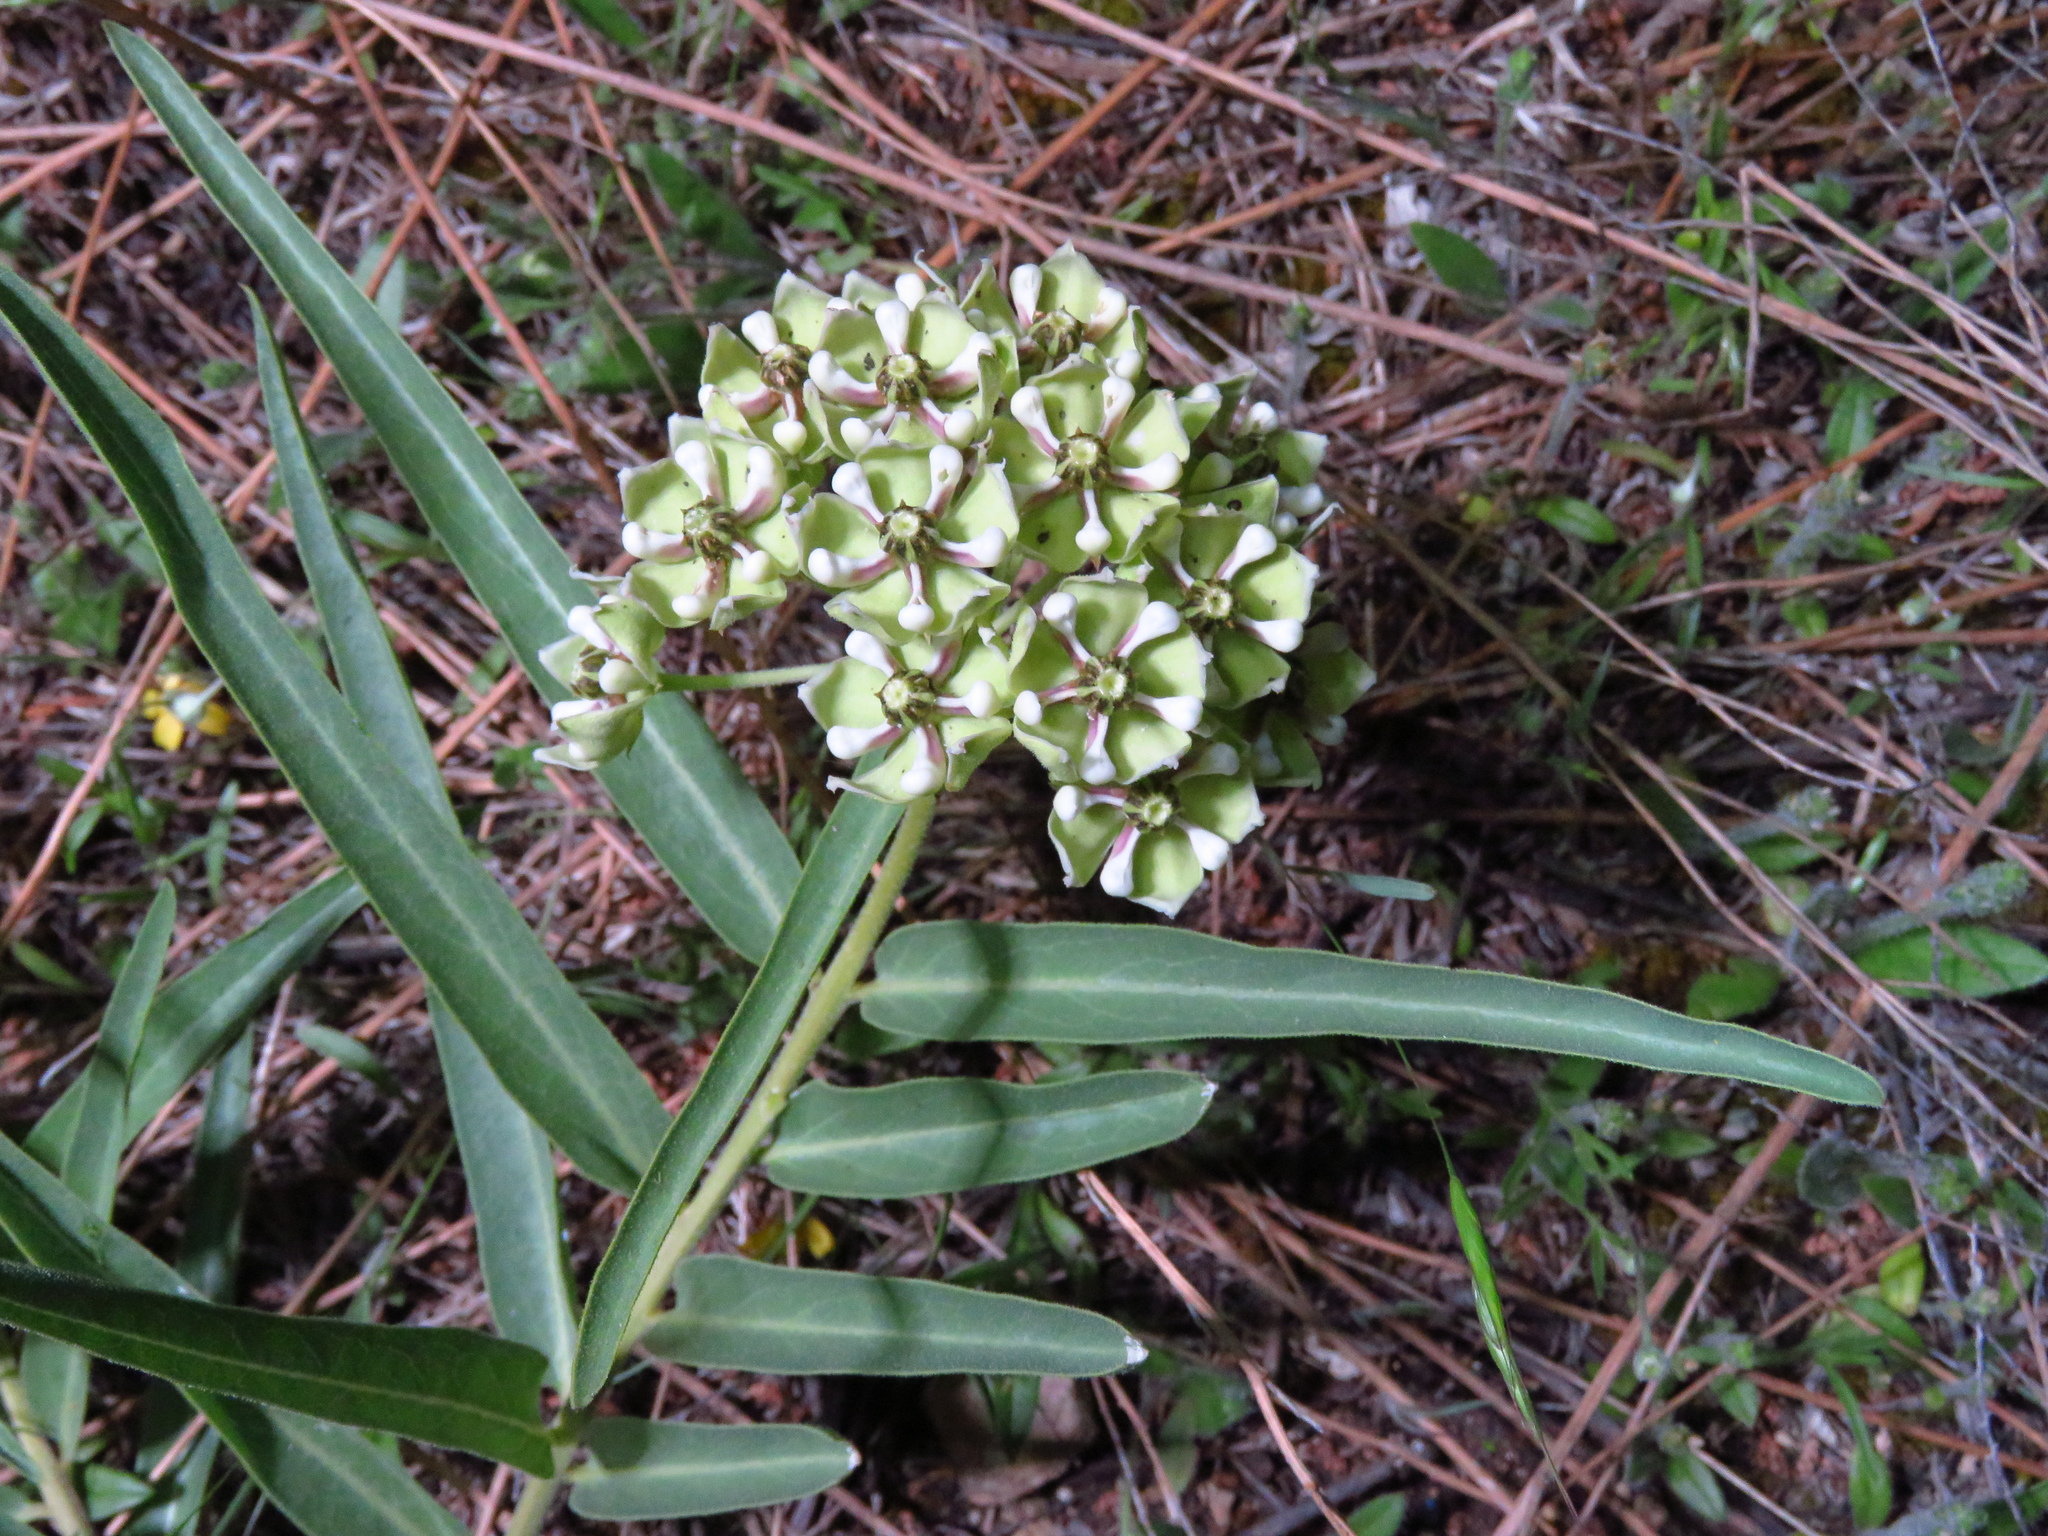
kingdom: Plantae
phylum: Tracheophyta
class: Magnoliopsida
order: Gentianales
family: Apocynaceae
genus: Asclepias
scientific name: Asclepias asperula
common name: Antelope horns
